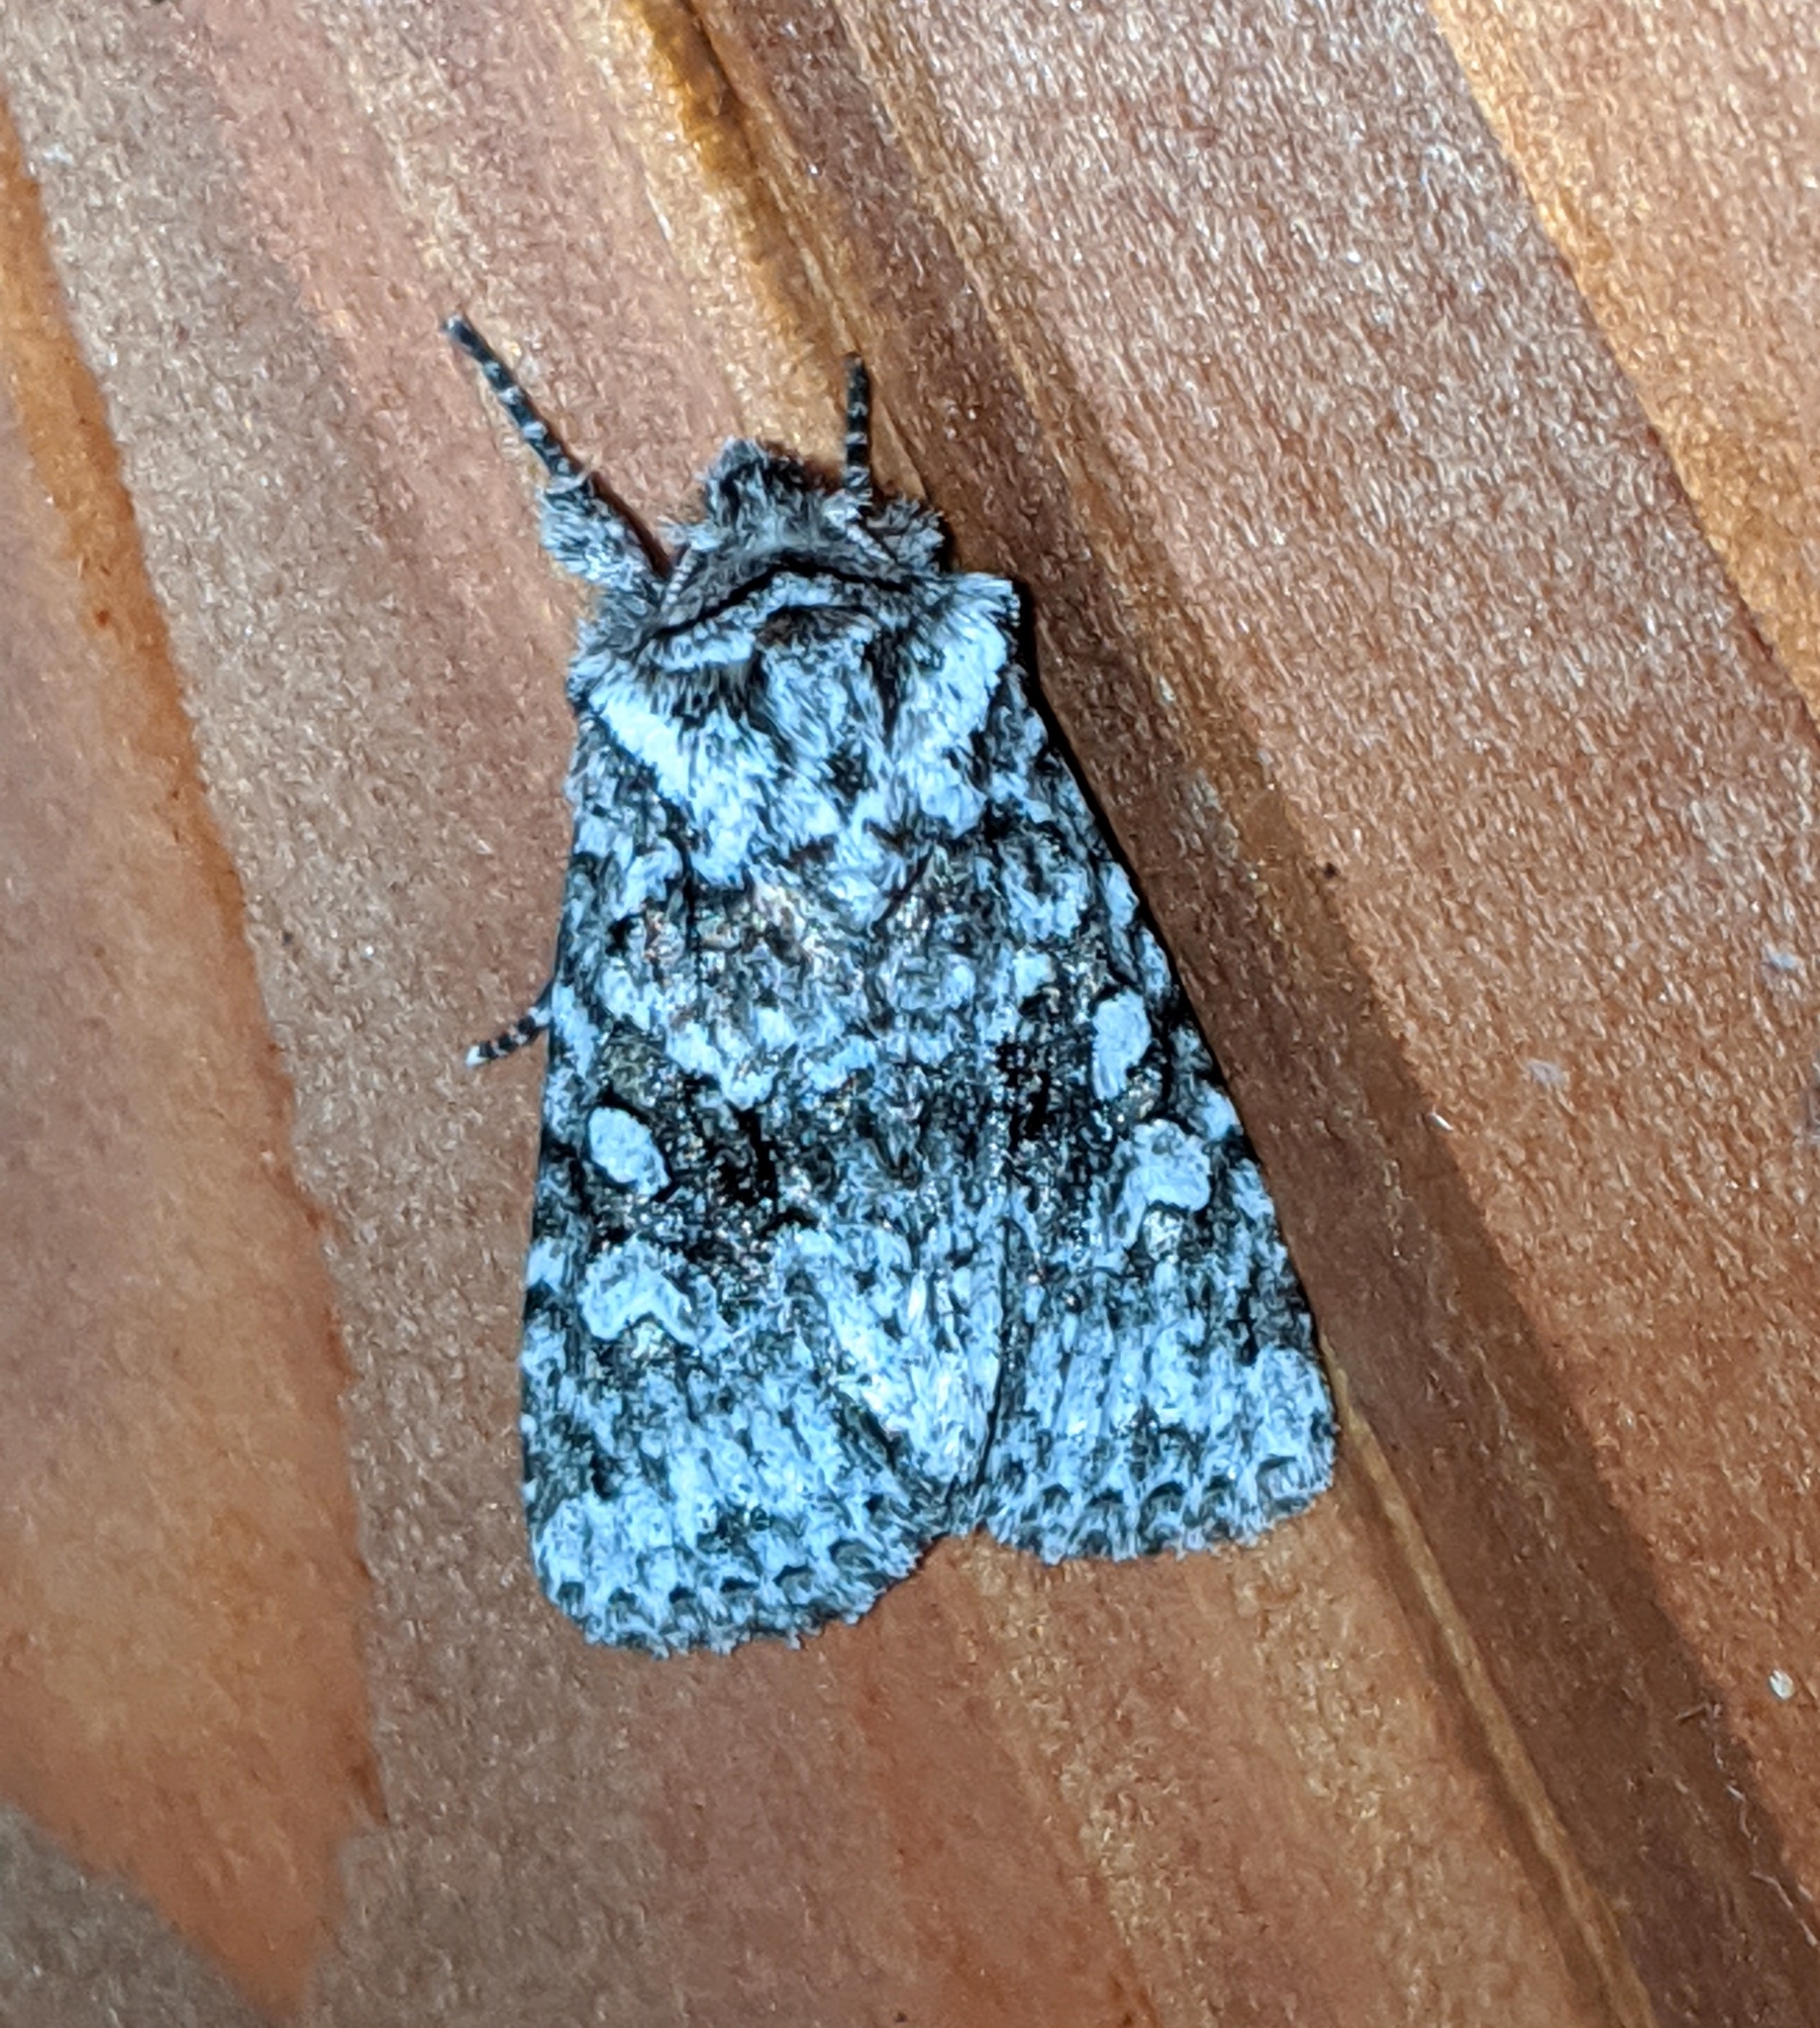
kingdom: Animalia
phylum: Arthropoda
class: Insecta
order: Lepidoptera
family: Noctuidae
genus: Lacinipolia
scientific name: Lacinipolia cuneata
